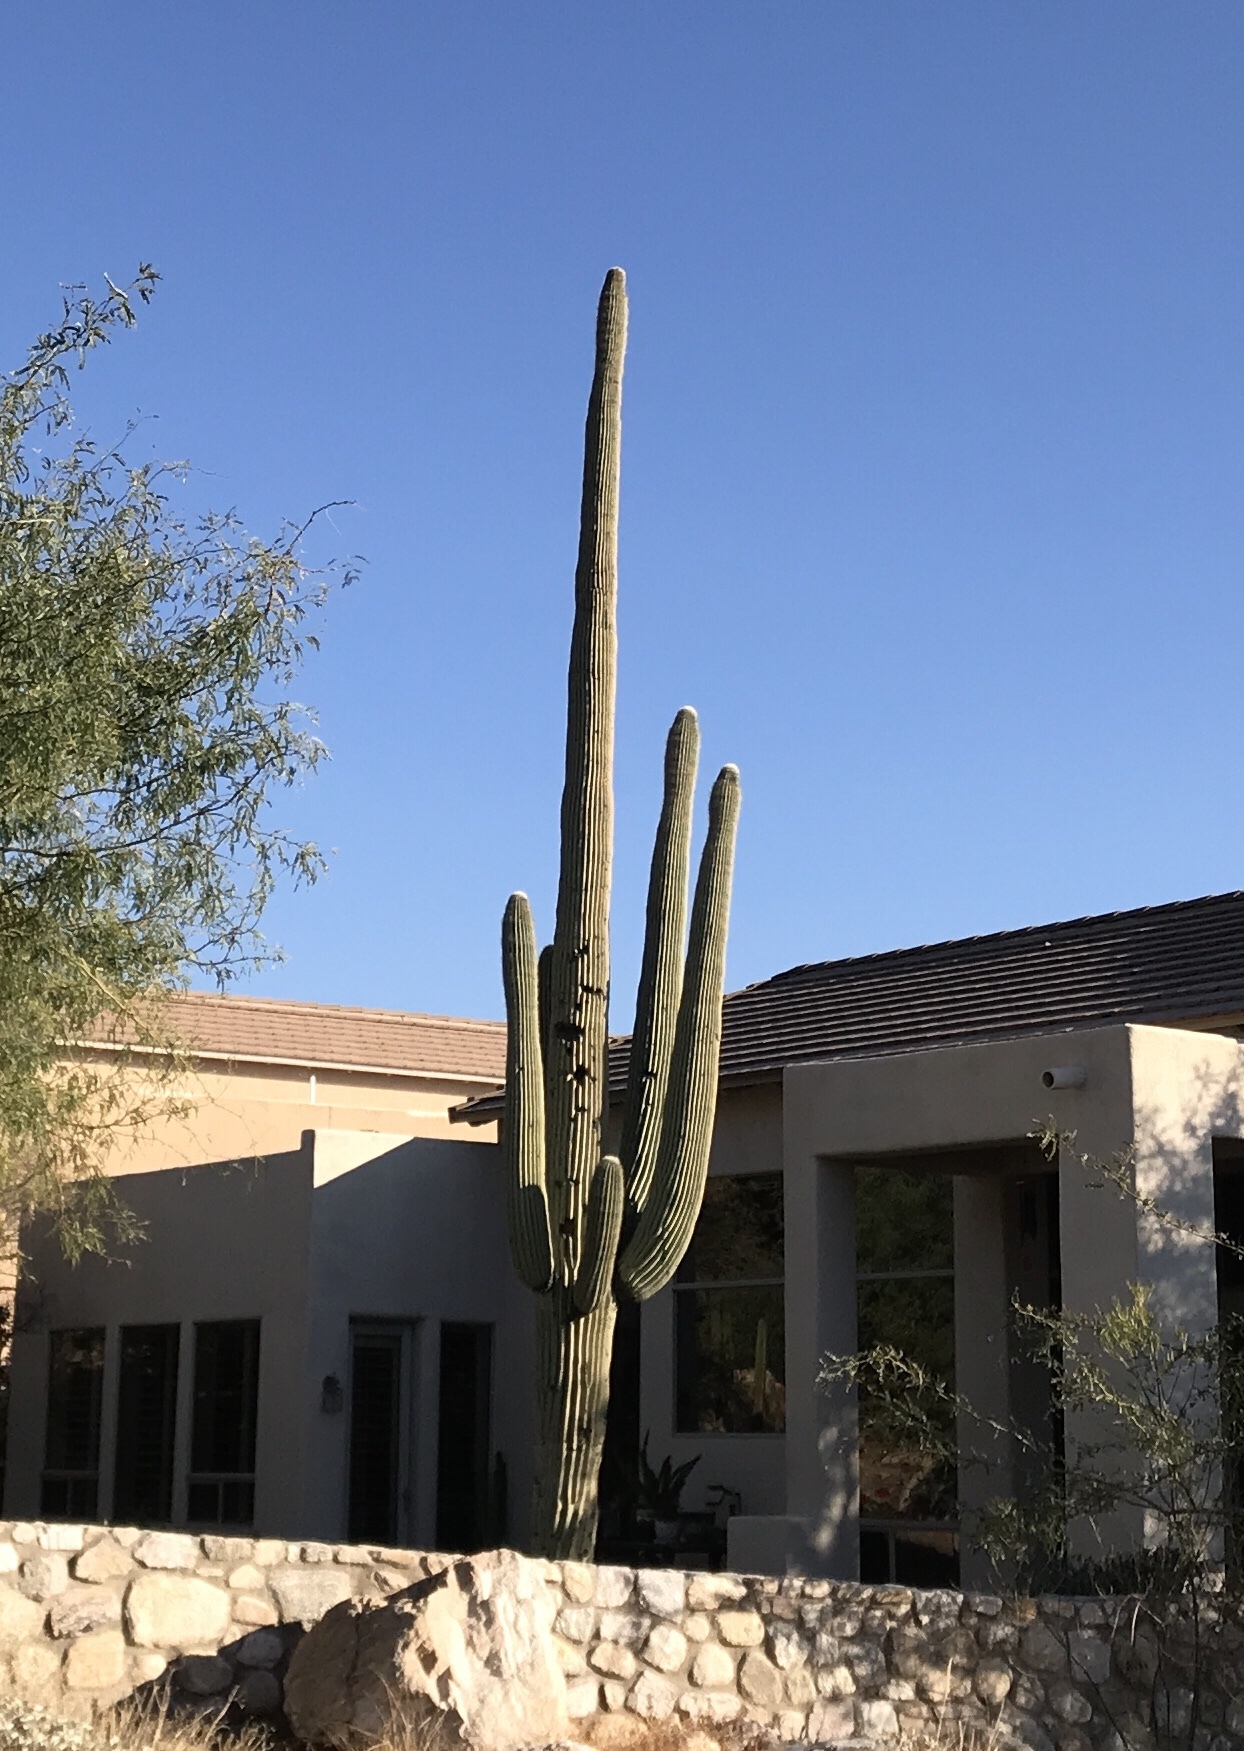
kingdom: Plantae
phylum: Tracheophyta
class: Magnoliopsida
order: Caryophyllales
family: Cactaceae
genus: Carnegiea
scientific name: Carnegiea gigantea
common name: Saguaro
